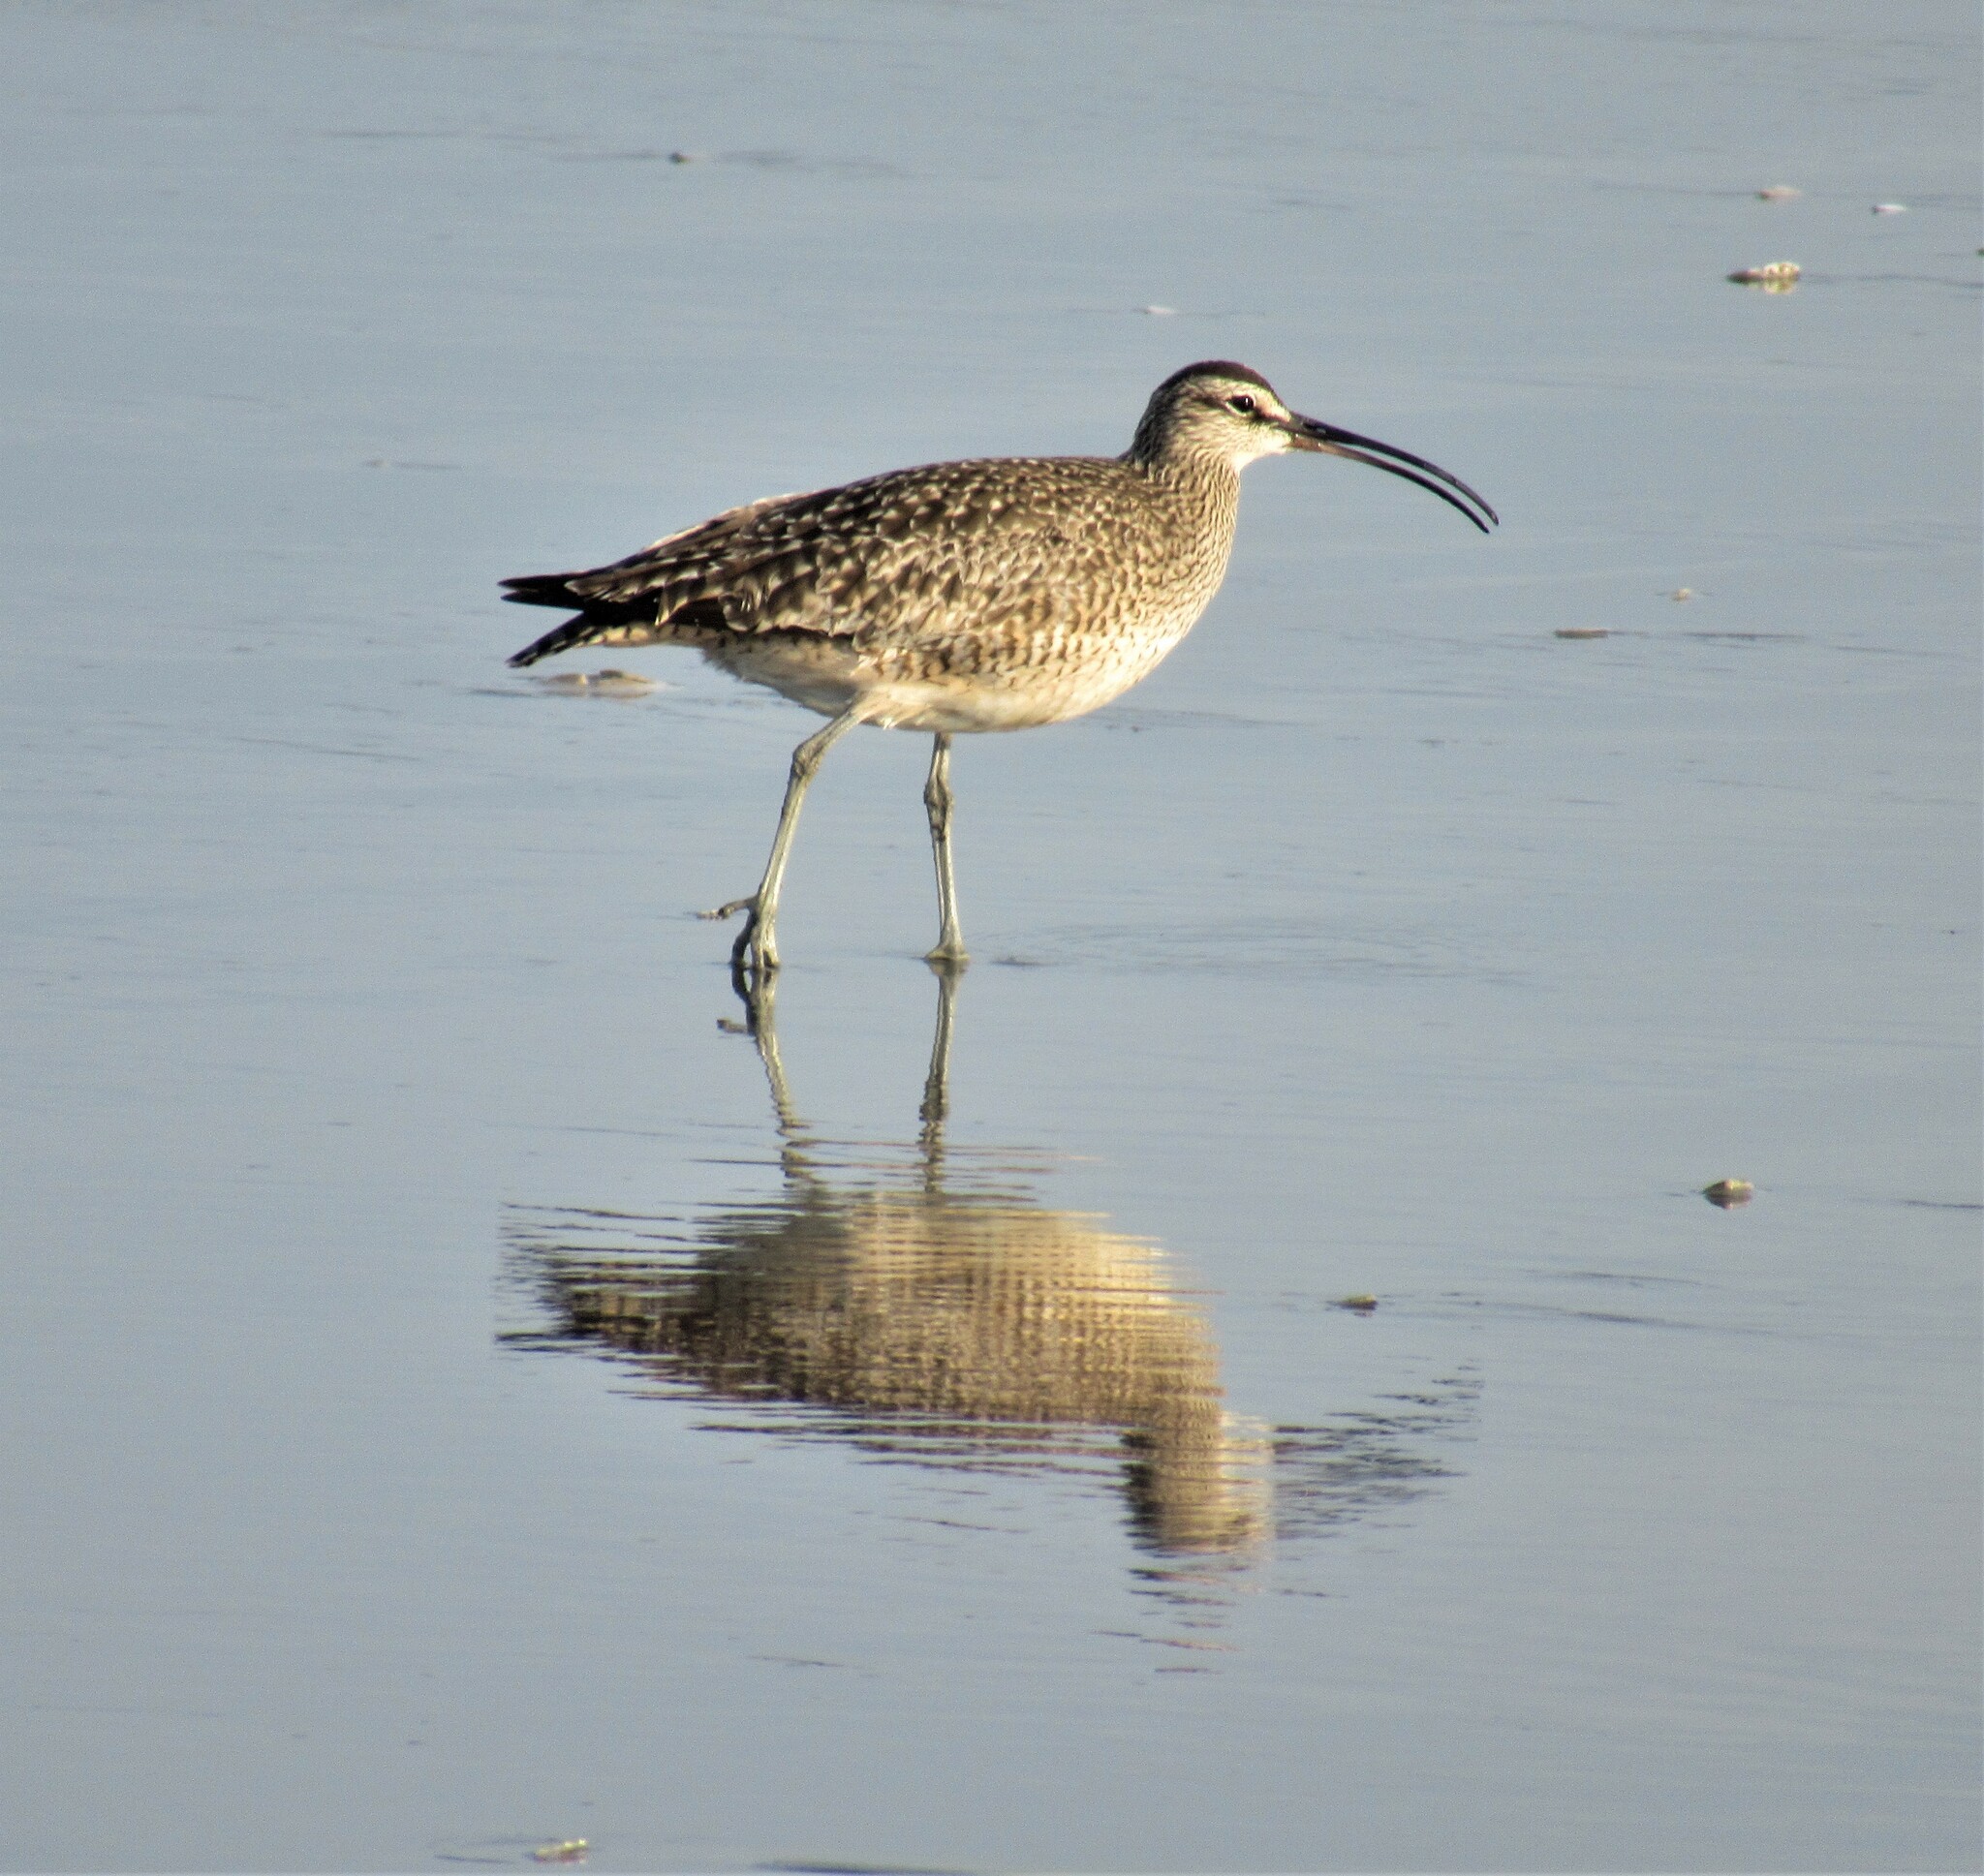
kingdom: Animalia
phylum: Chordata
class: Aves
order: Charadriiformes
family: Scolopacidae
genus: Numenius
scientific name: Numenius phaeopus
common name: Whimbrel
